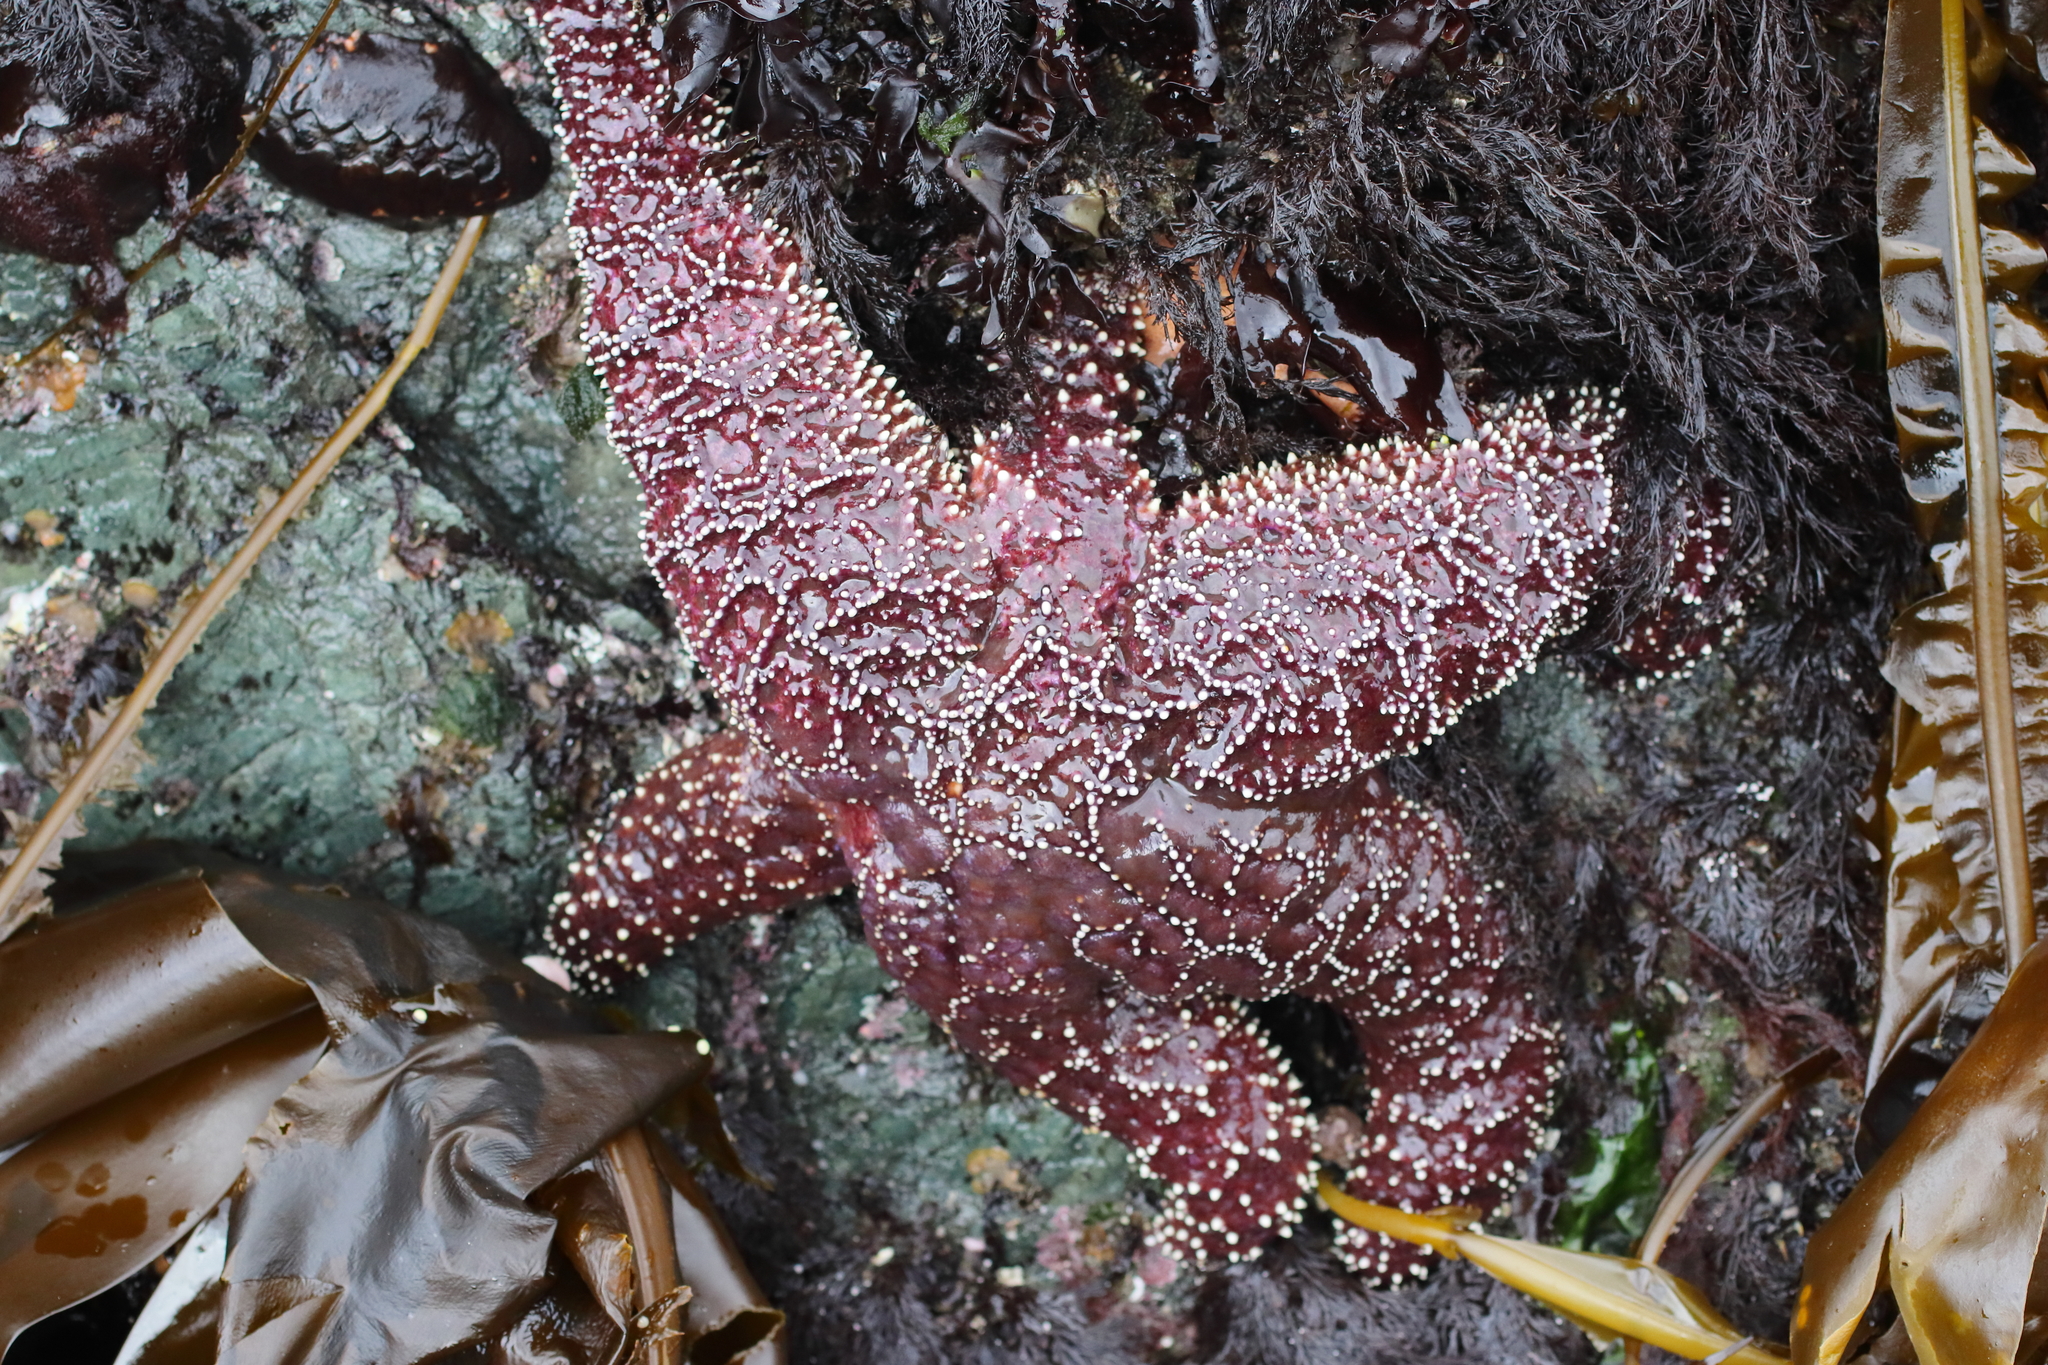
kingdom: Animalia
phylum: Echinodermata
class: Asteroidea
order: Forcipulatida
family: Asteriidae
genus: Pisaster
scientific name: Pisaster ochraceus
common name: Ochre stars
